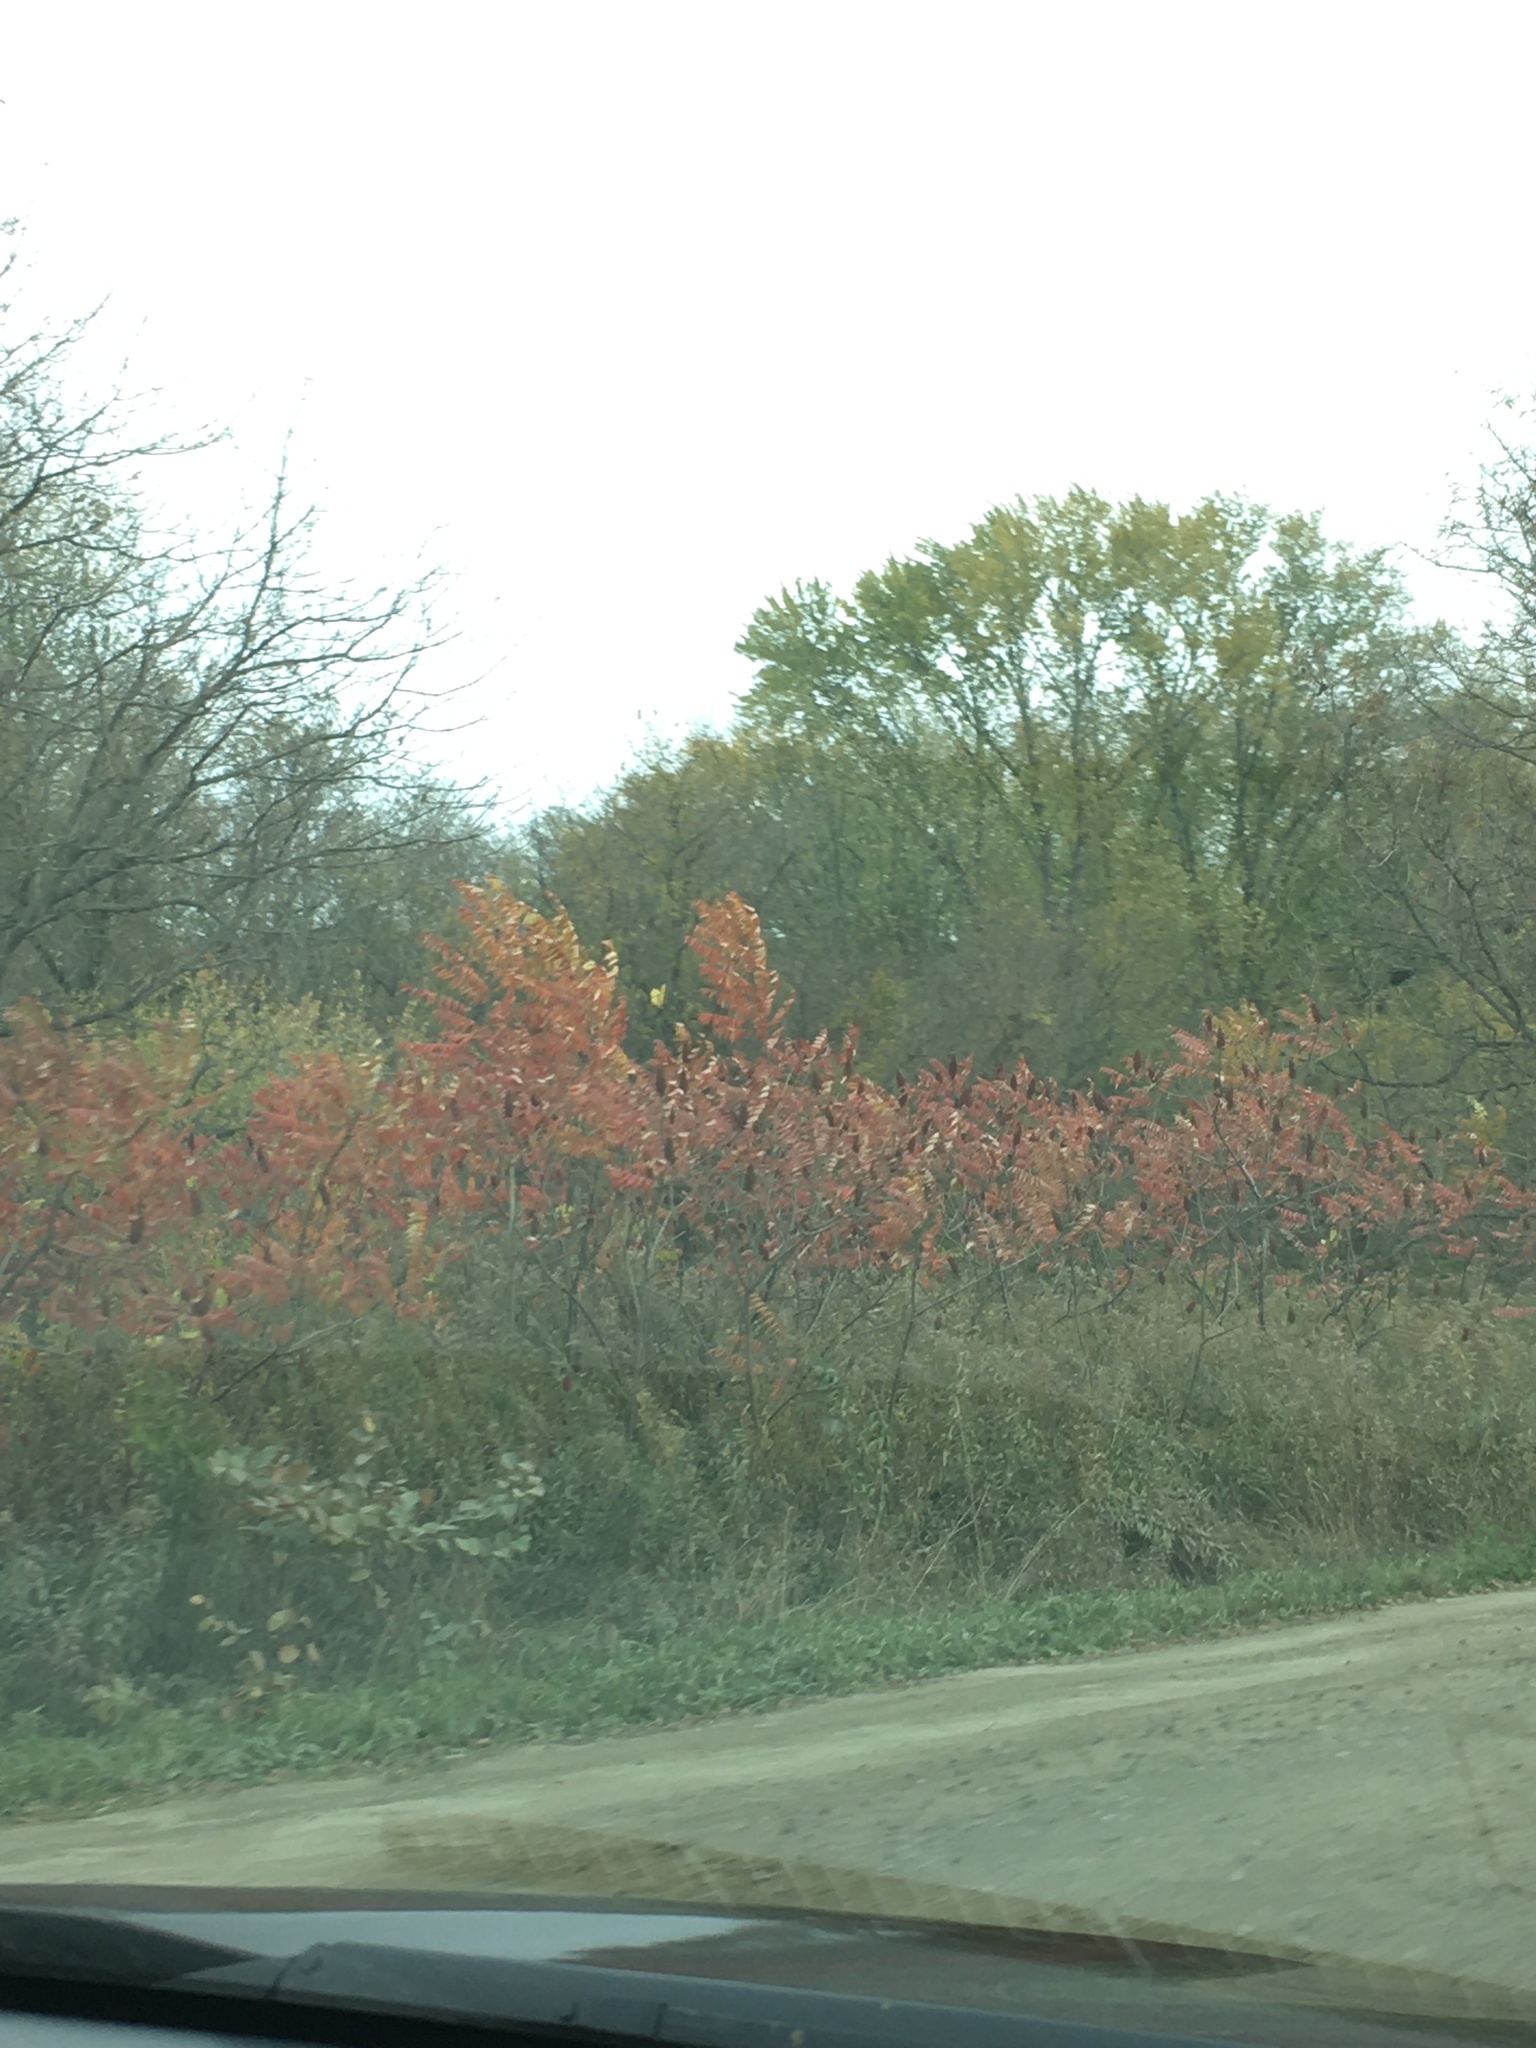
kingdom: Plantae
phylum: Tracheophyta
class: Magnoliopsida
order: Sapindales
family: Anacardiaceae
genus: Rhus
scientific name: Rhus typhina
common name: Staghorn sumac
